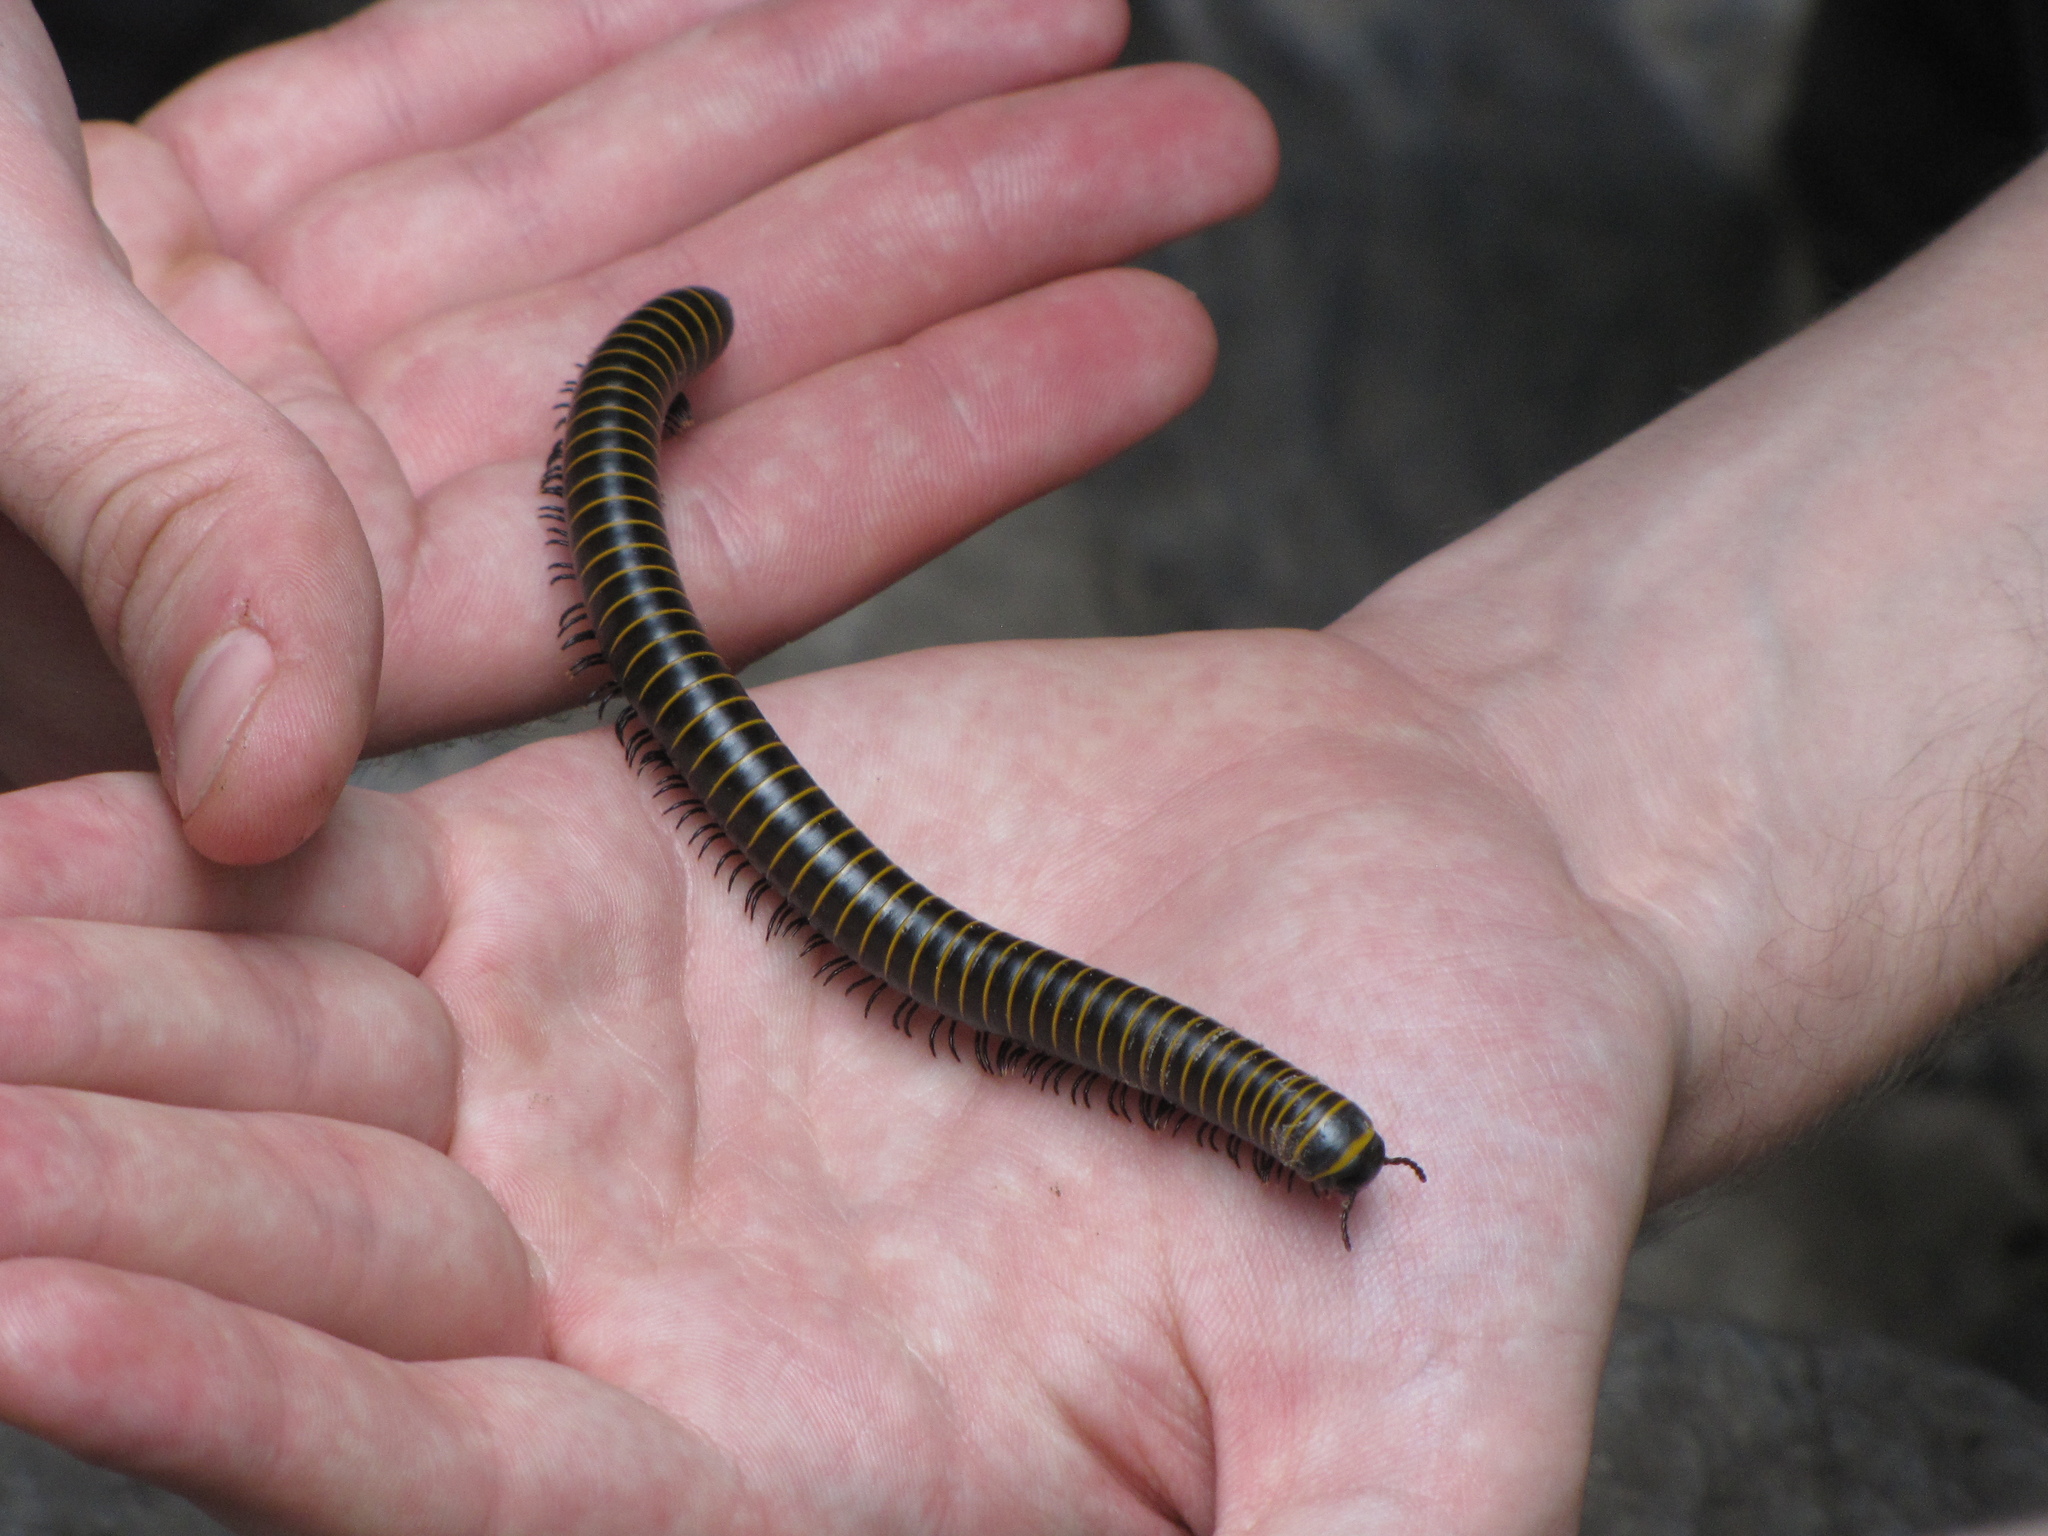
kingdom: Animalia
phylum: Arthropoda
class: Diplopoda
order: Spirobolida
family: Spirobolidae
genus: Spirobolus
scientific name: Spirobolus bungii
